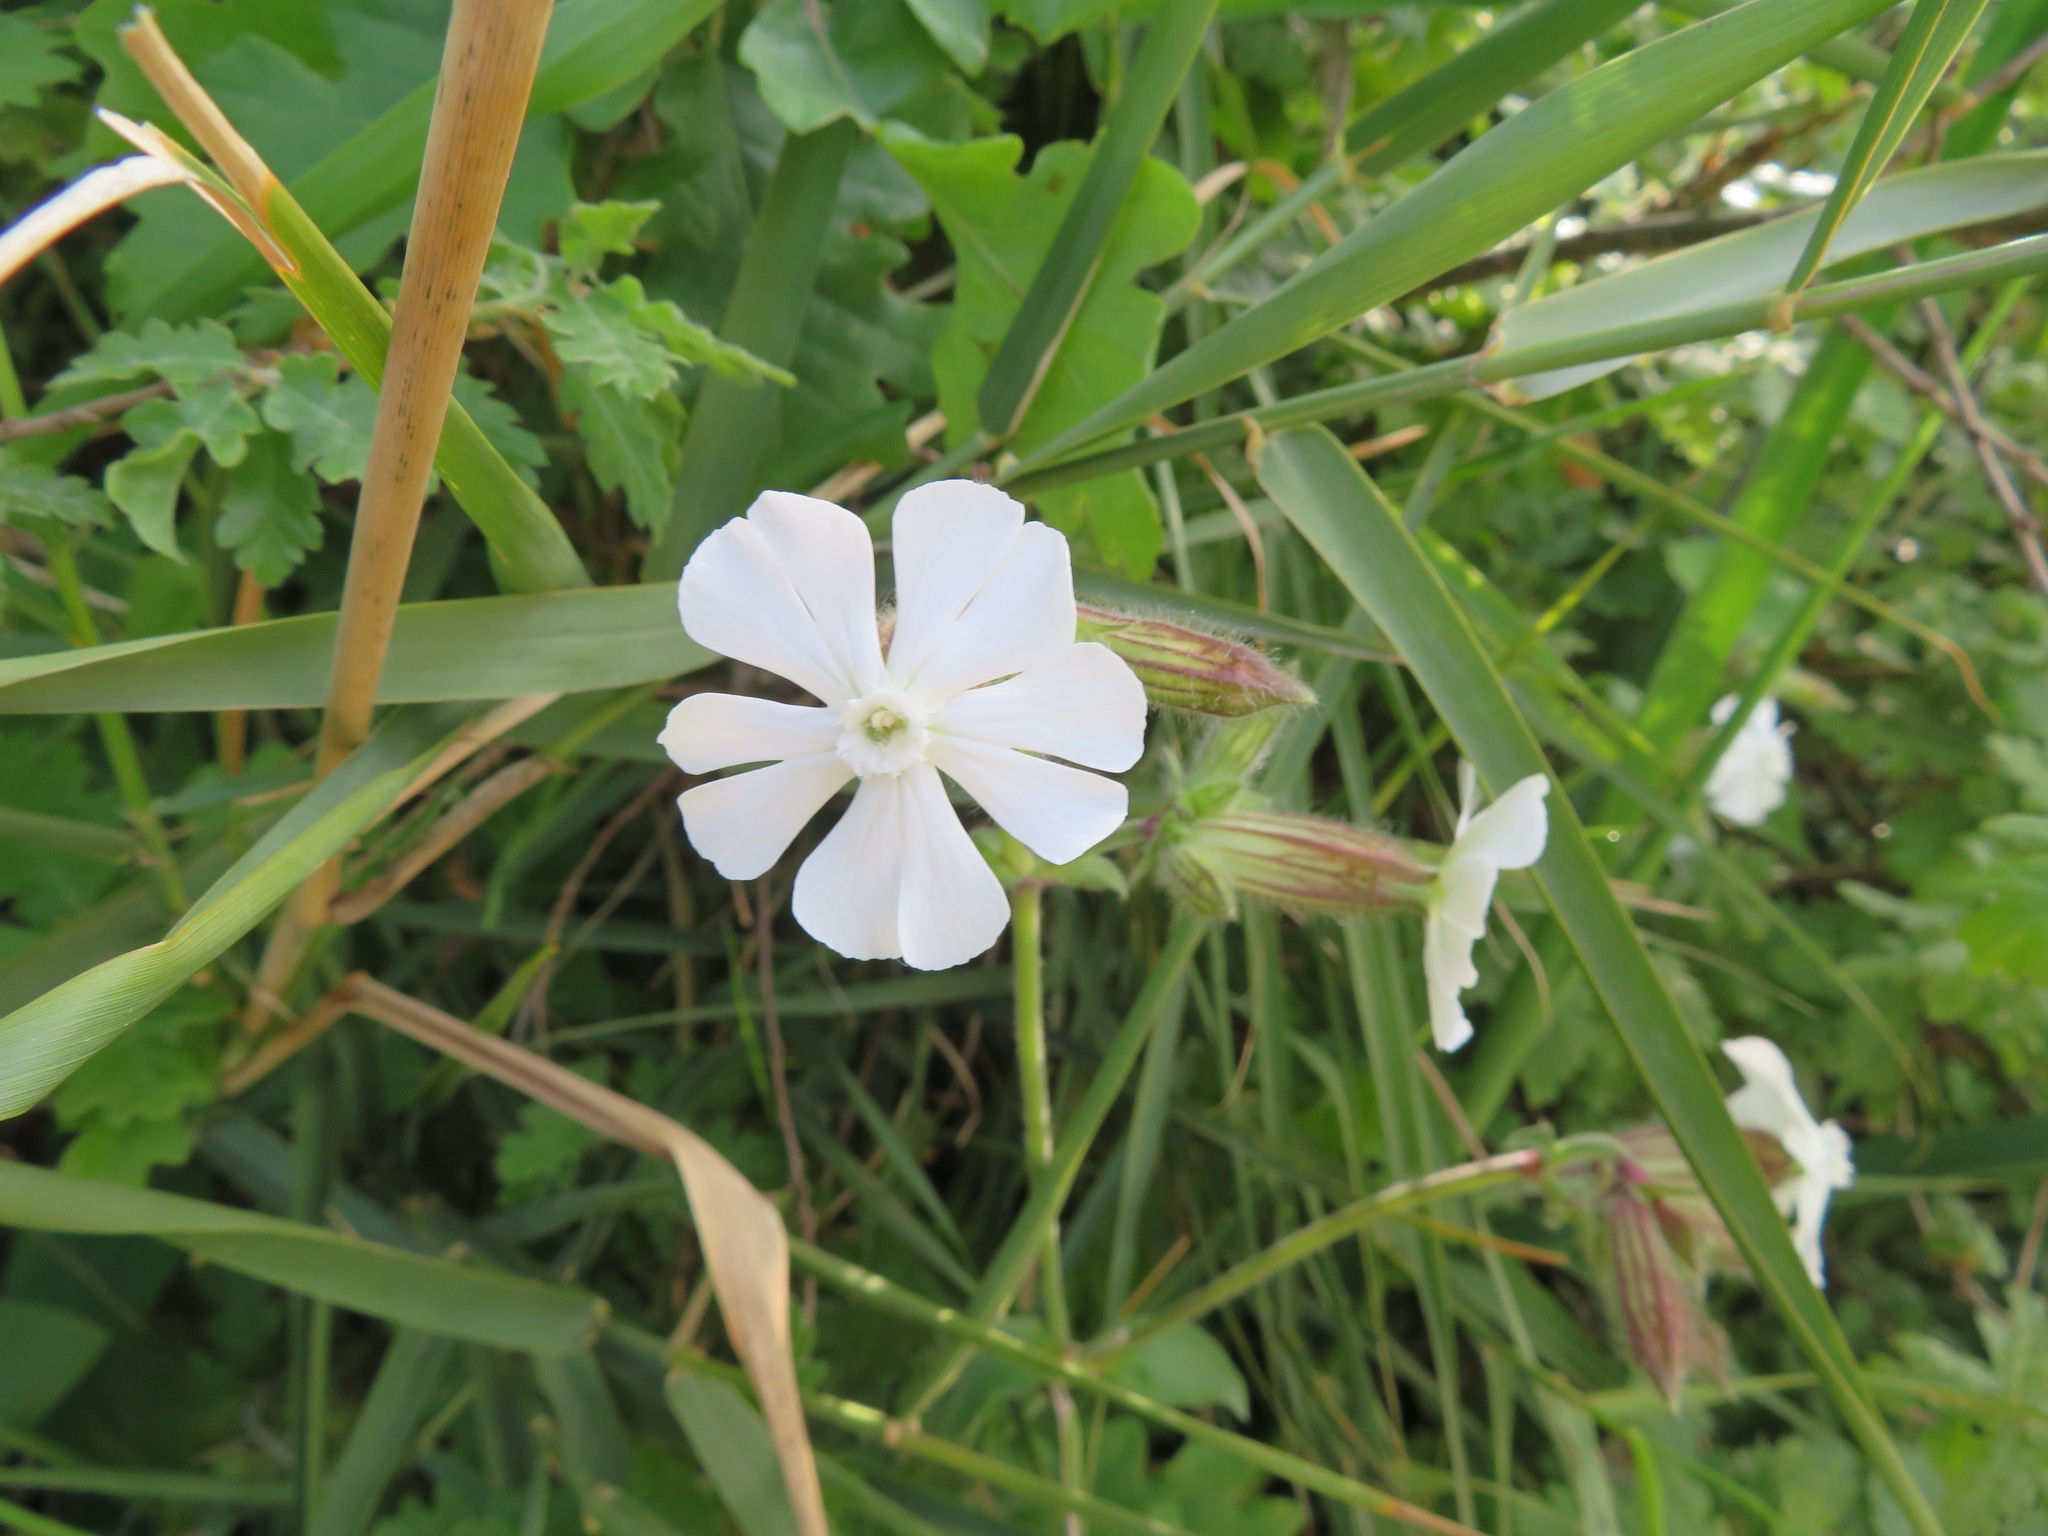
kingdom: Plantae
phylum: Tracheophyta
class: Magnoliopsida
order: Caryophyllales
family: Caryophyllaceae
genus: Silene
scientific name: Silene latifolia
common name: White campion
